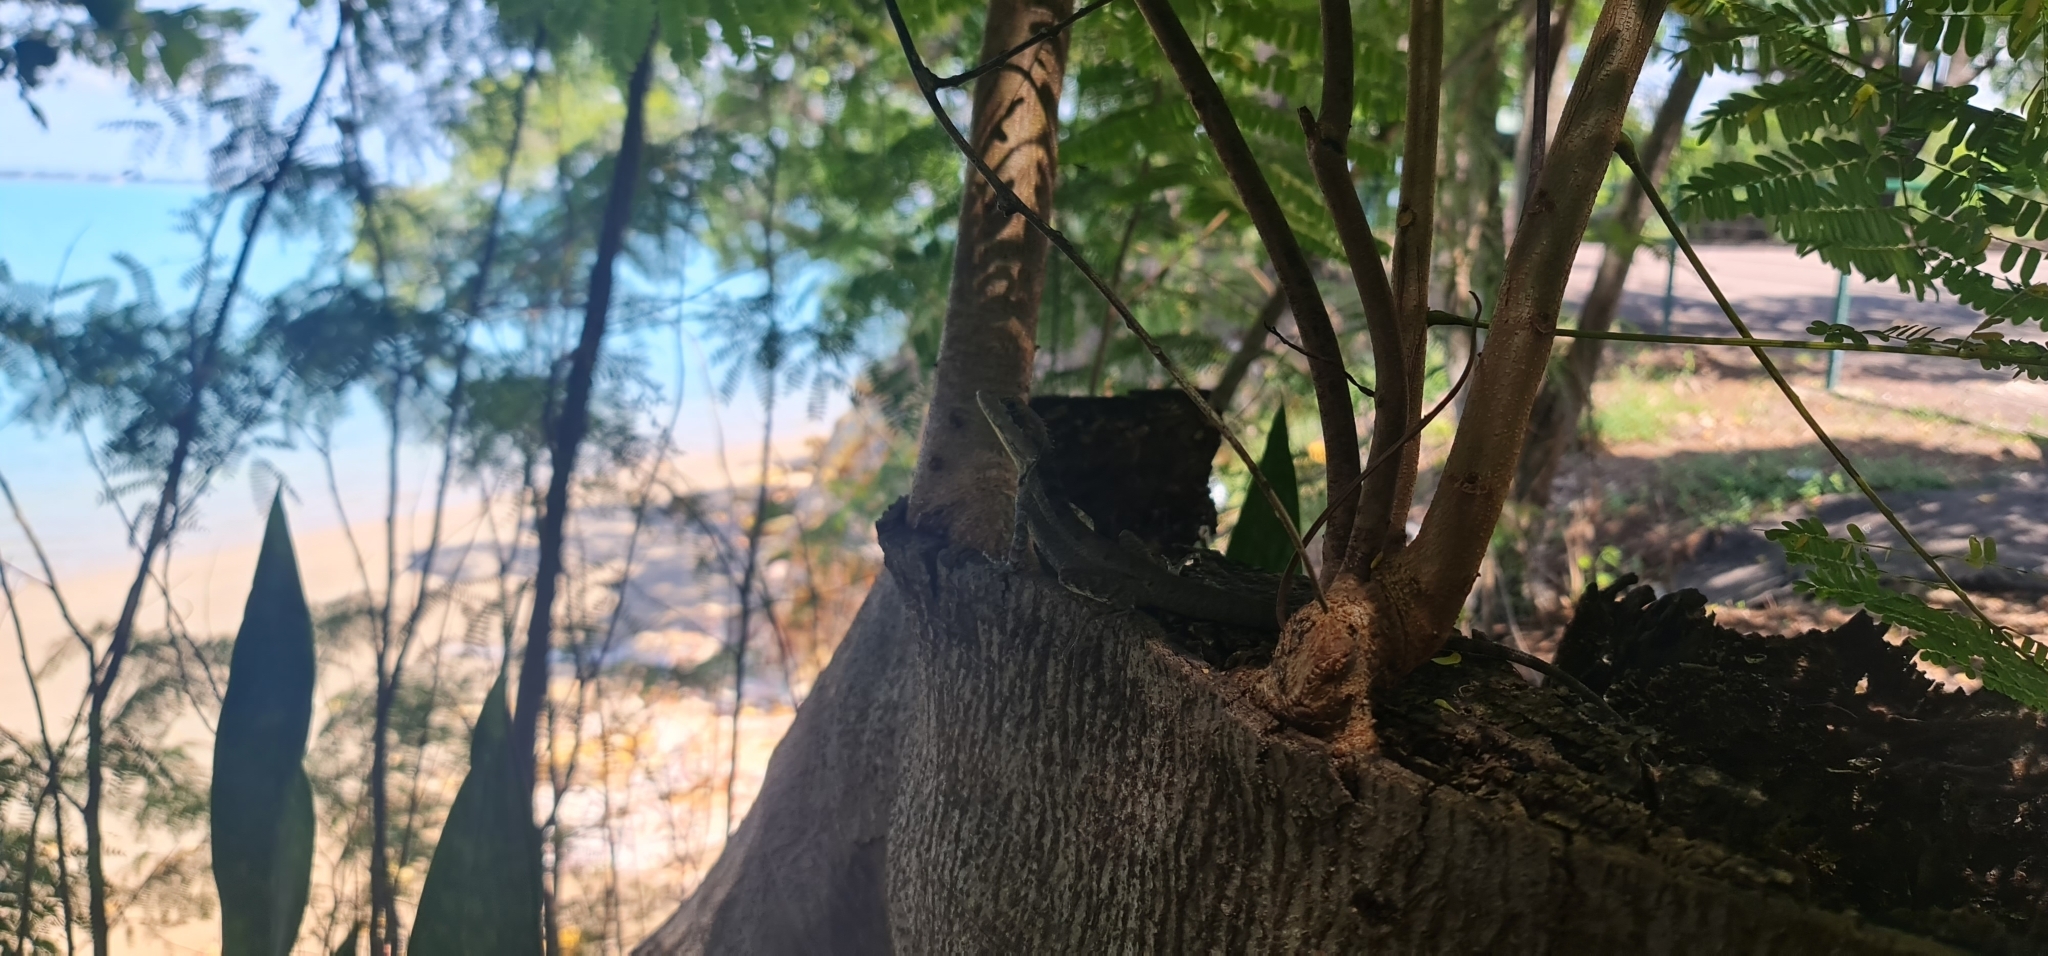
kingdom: Animalia
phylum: Chordata
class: Squamata
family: Agamidae
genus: Tropicagama
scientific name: Tropicagama temporalis
